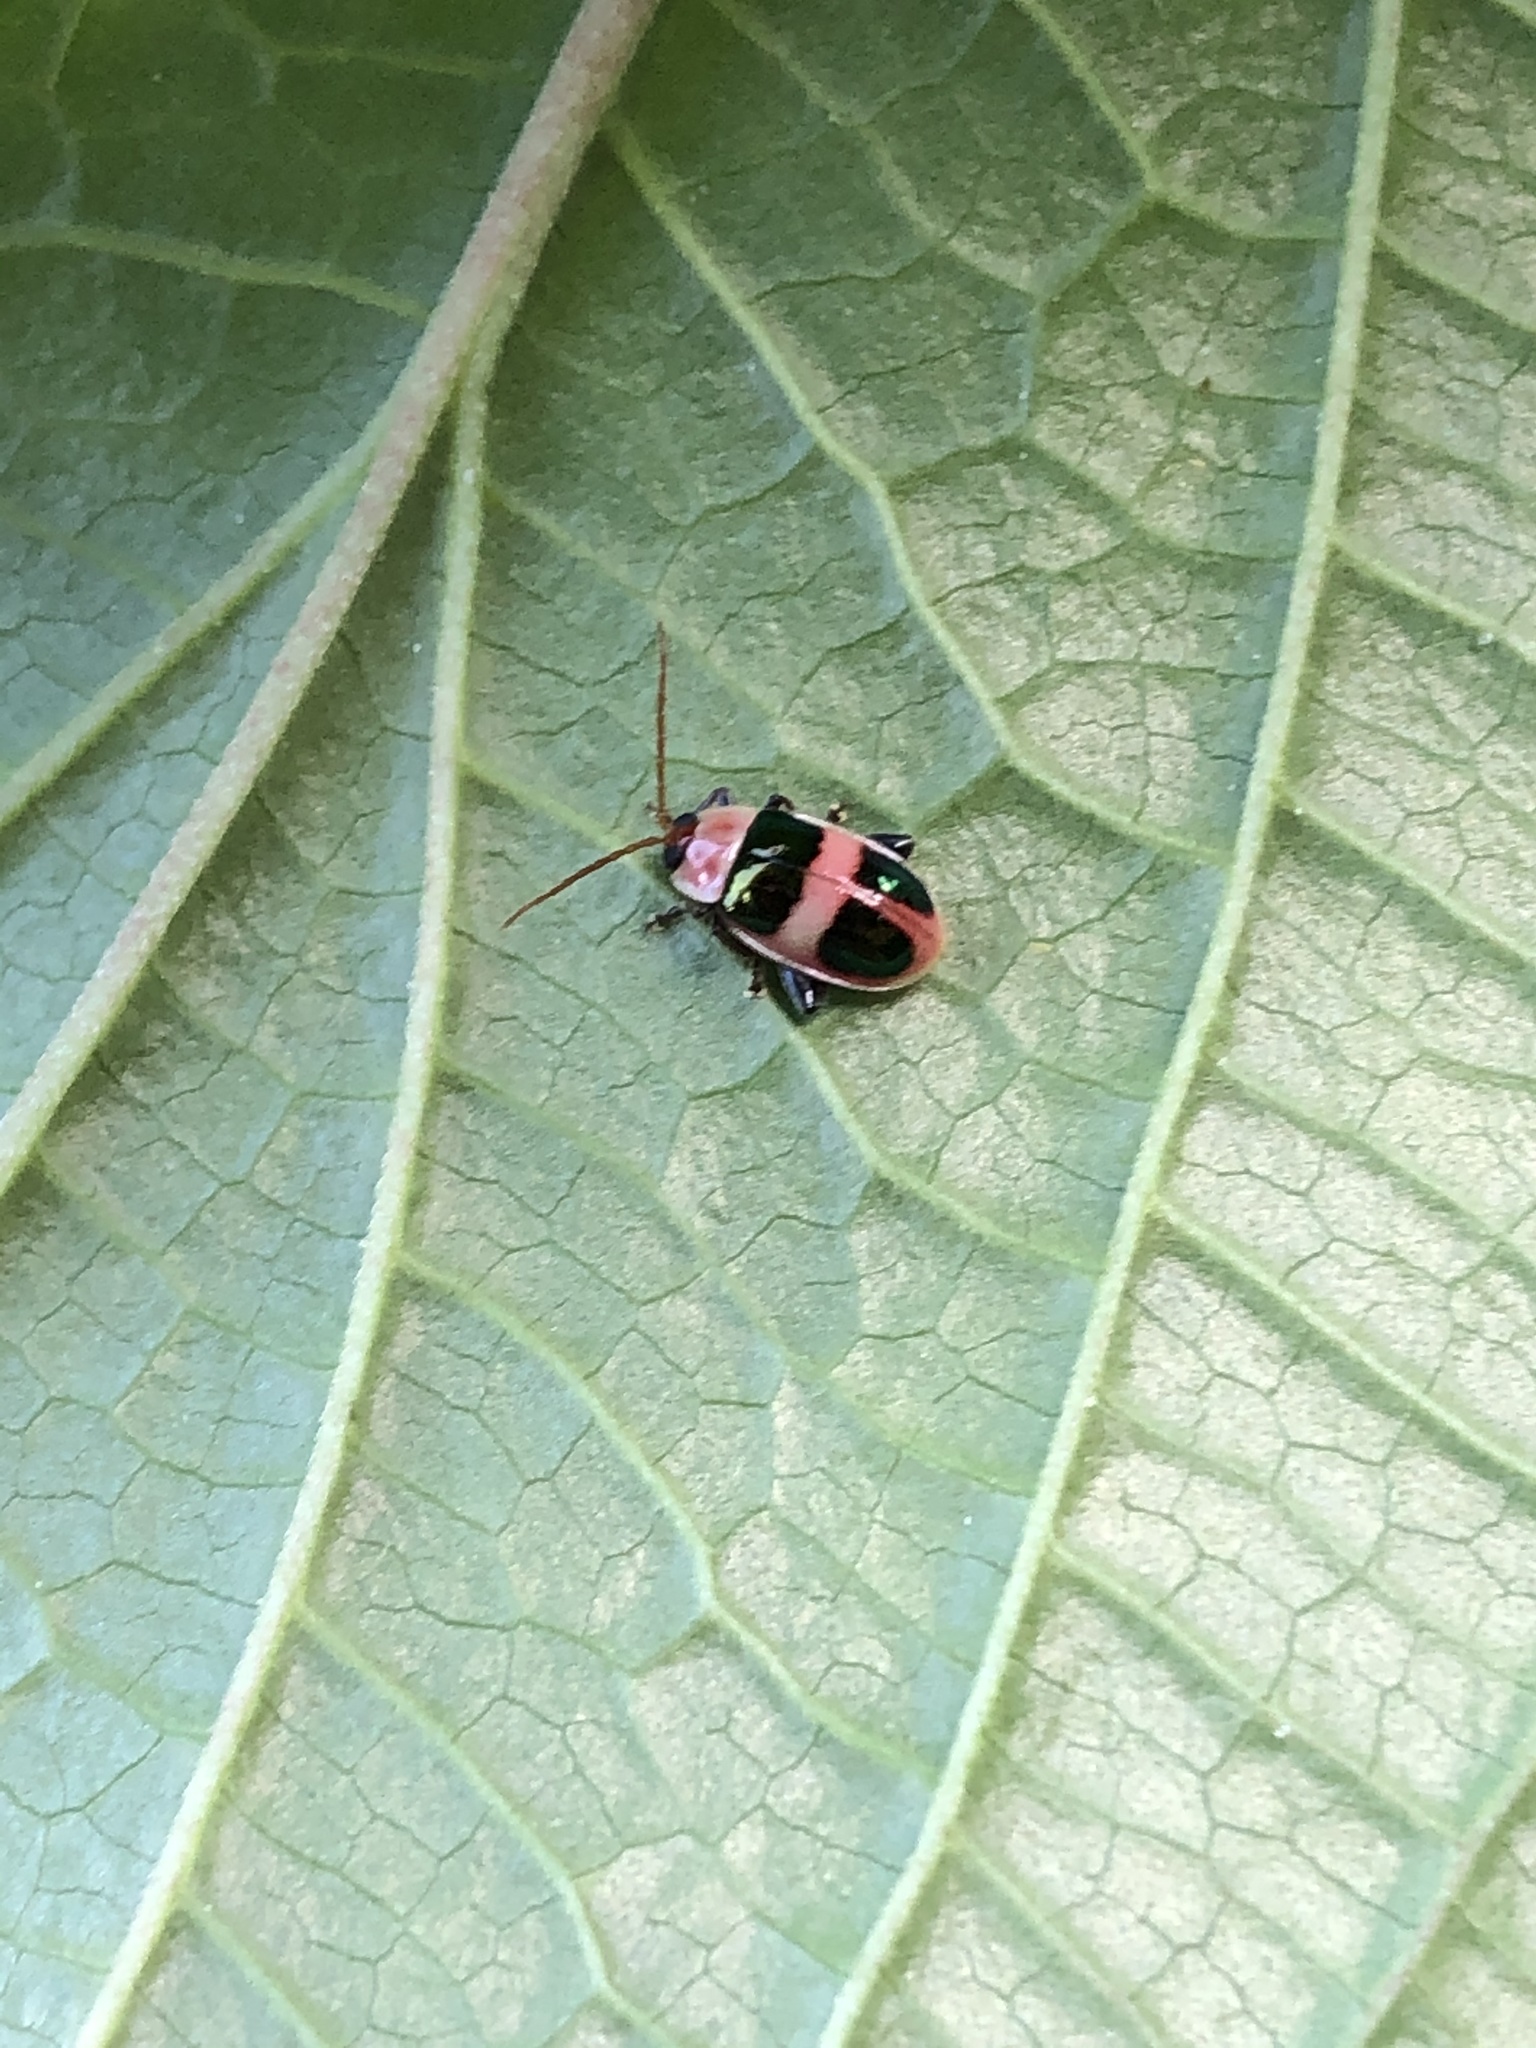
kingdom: Animalia
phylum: Arthropoda
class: Insecta
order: Coleoptera
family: Chrysomelidae
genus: Alagoasa
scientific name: Alagoasa
